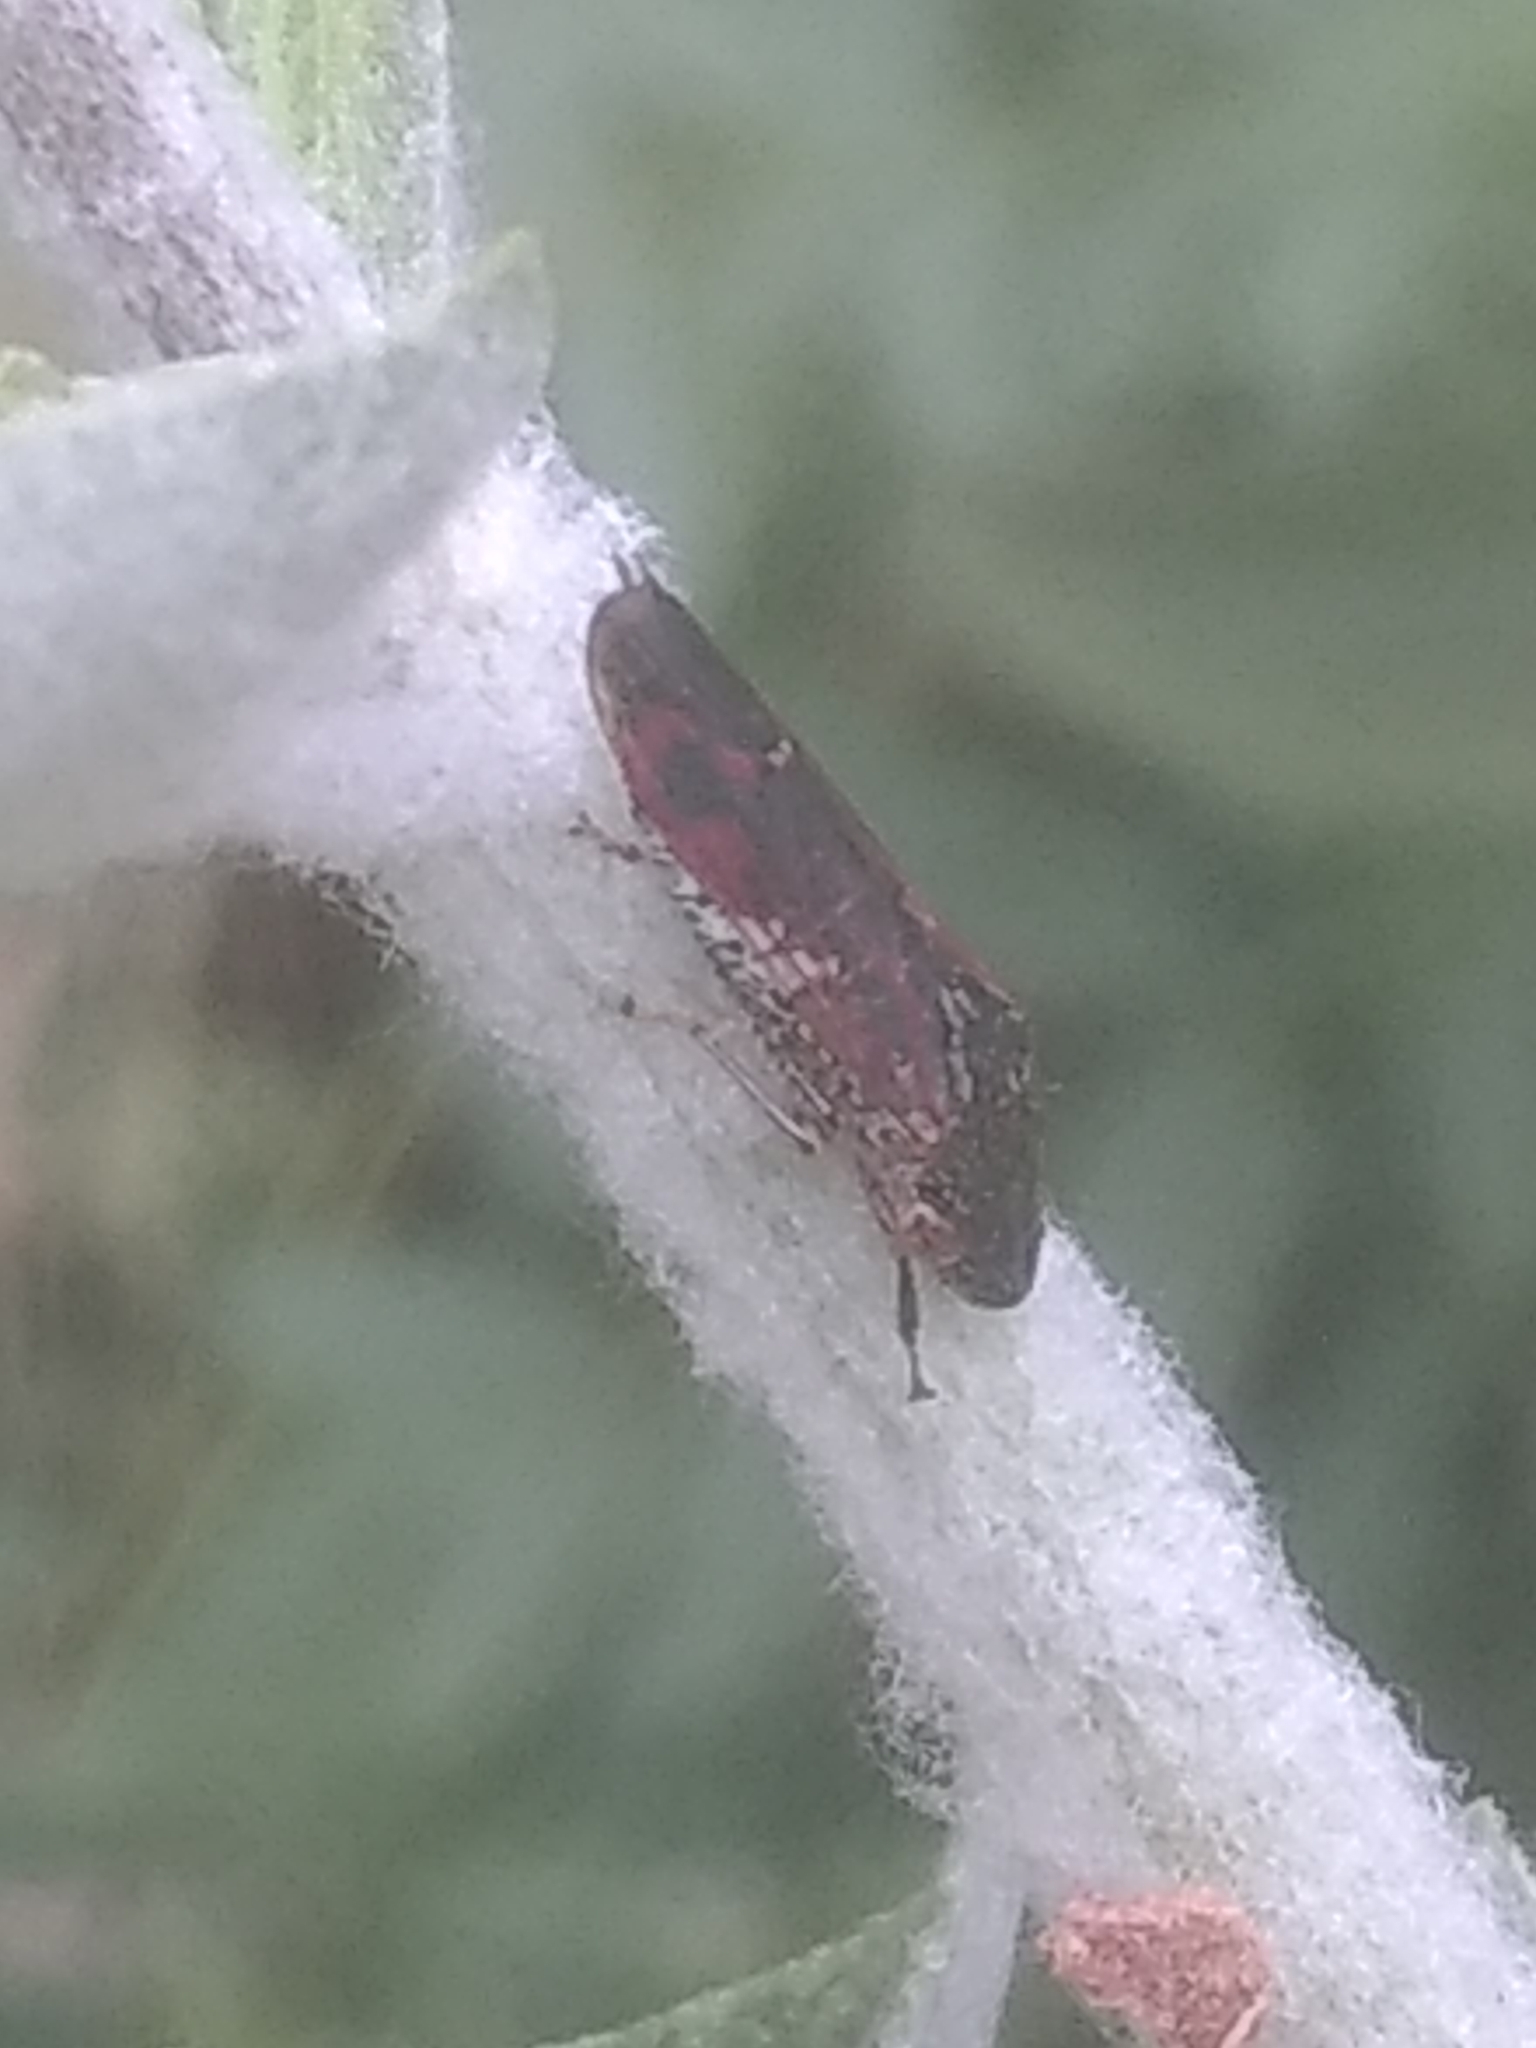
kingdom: Animalia
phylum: Arthropoda
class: Insecta
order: Hemiptera
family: Cicadellidae
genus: Homalodisca
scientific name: Homalodisca vitripennis
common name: Glassy-winged sharpshooter
